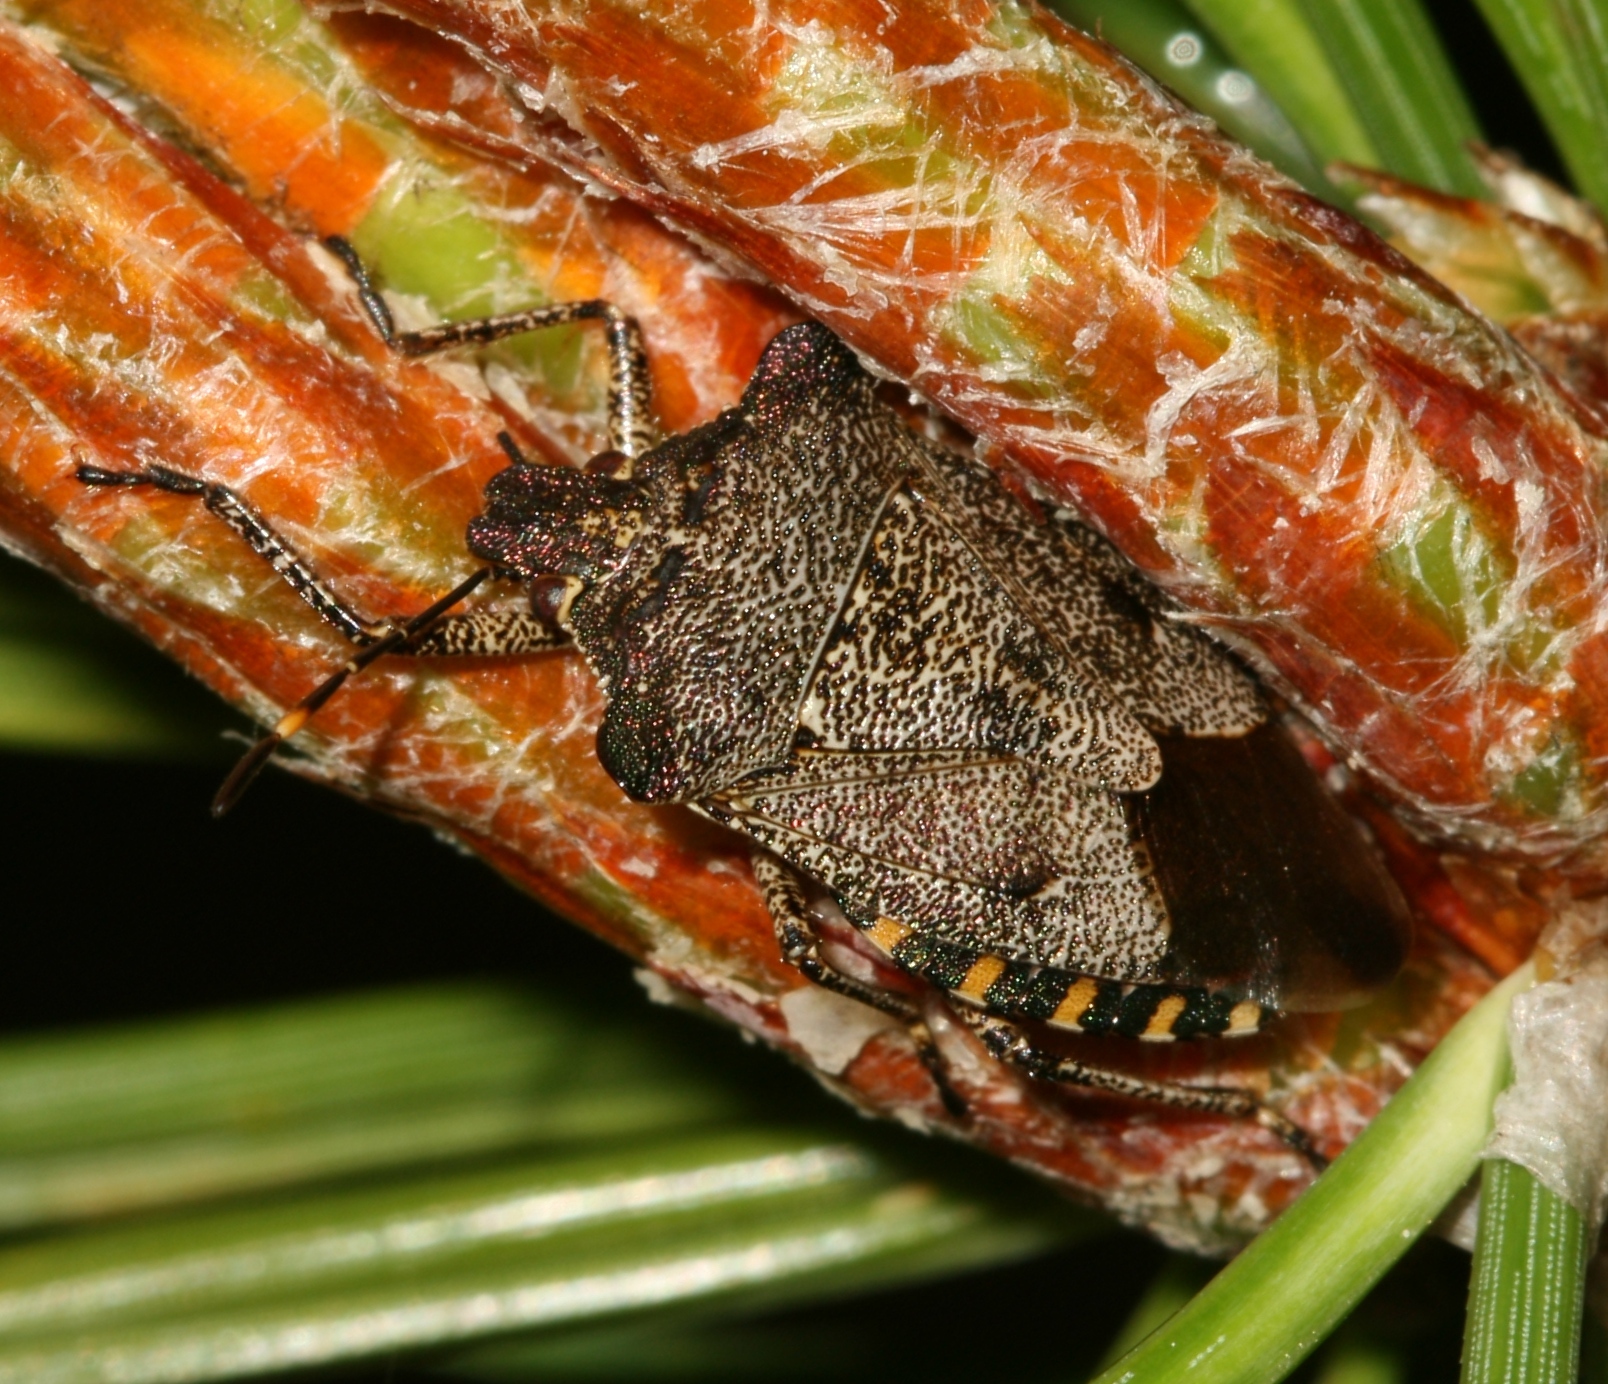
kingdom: Animalia
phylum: Arthropoda
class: Insecta
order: Hemiptera
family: Pentatomidae
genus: Troilus
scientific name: Troilus luridus
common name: Bronze shieldbug
